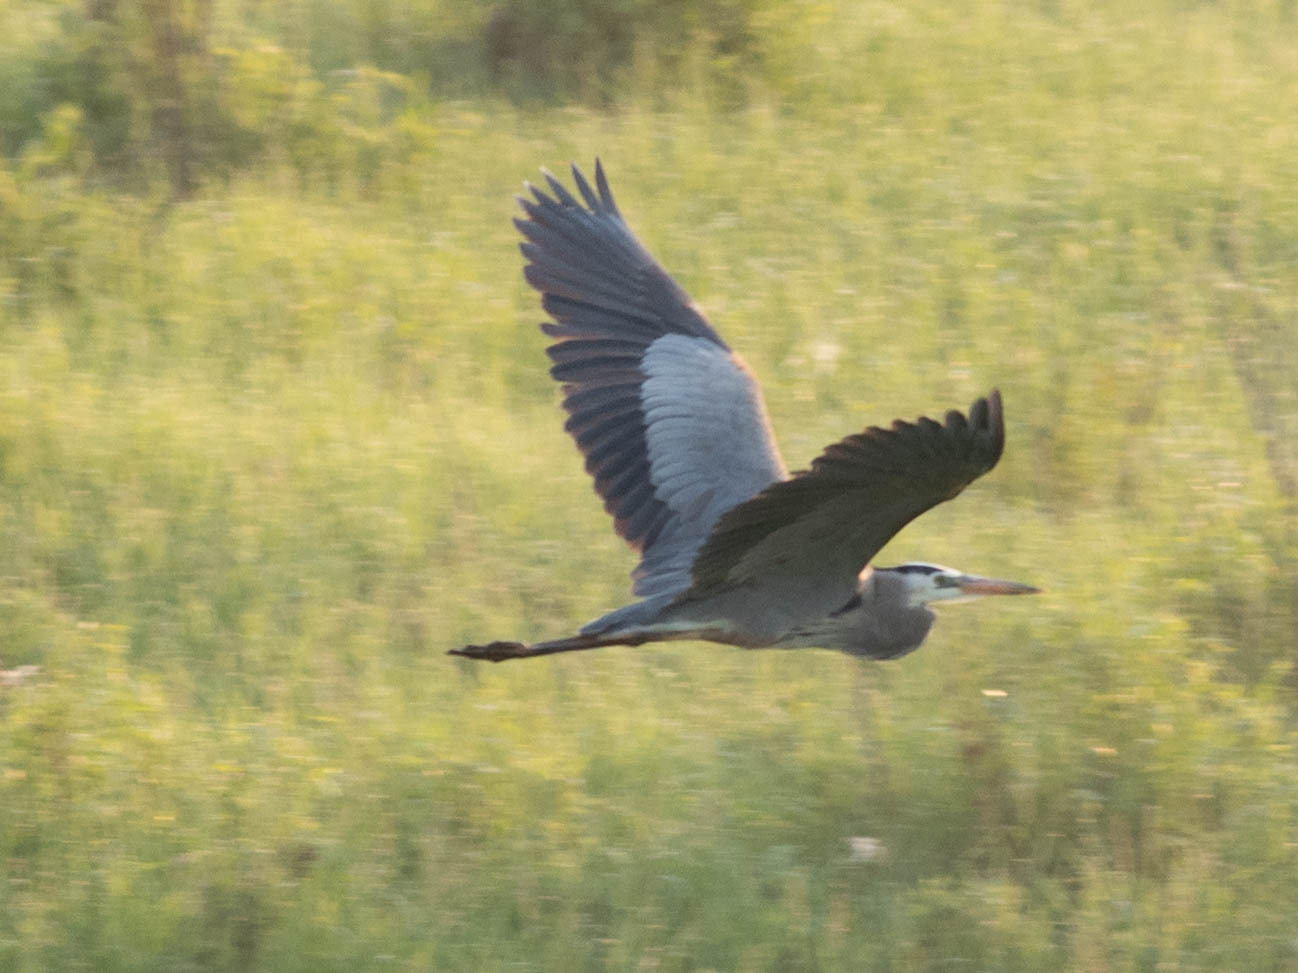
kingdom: Animalia
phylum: Chordata
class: Aves
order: Pelecaniformes
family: Ardeidae
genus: Ardea
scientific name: Ardea herodias
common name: Great blue heron
